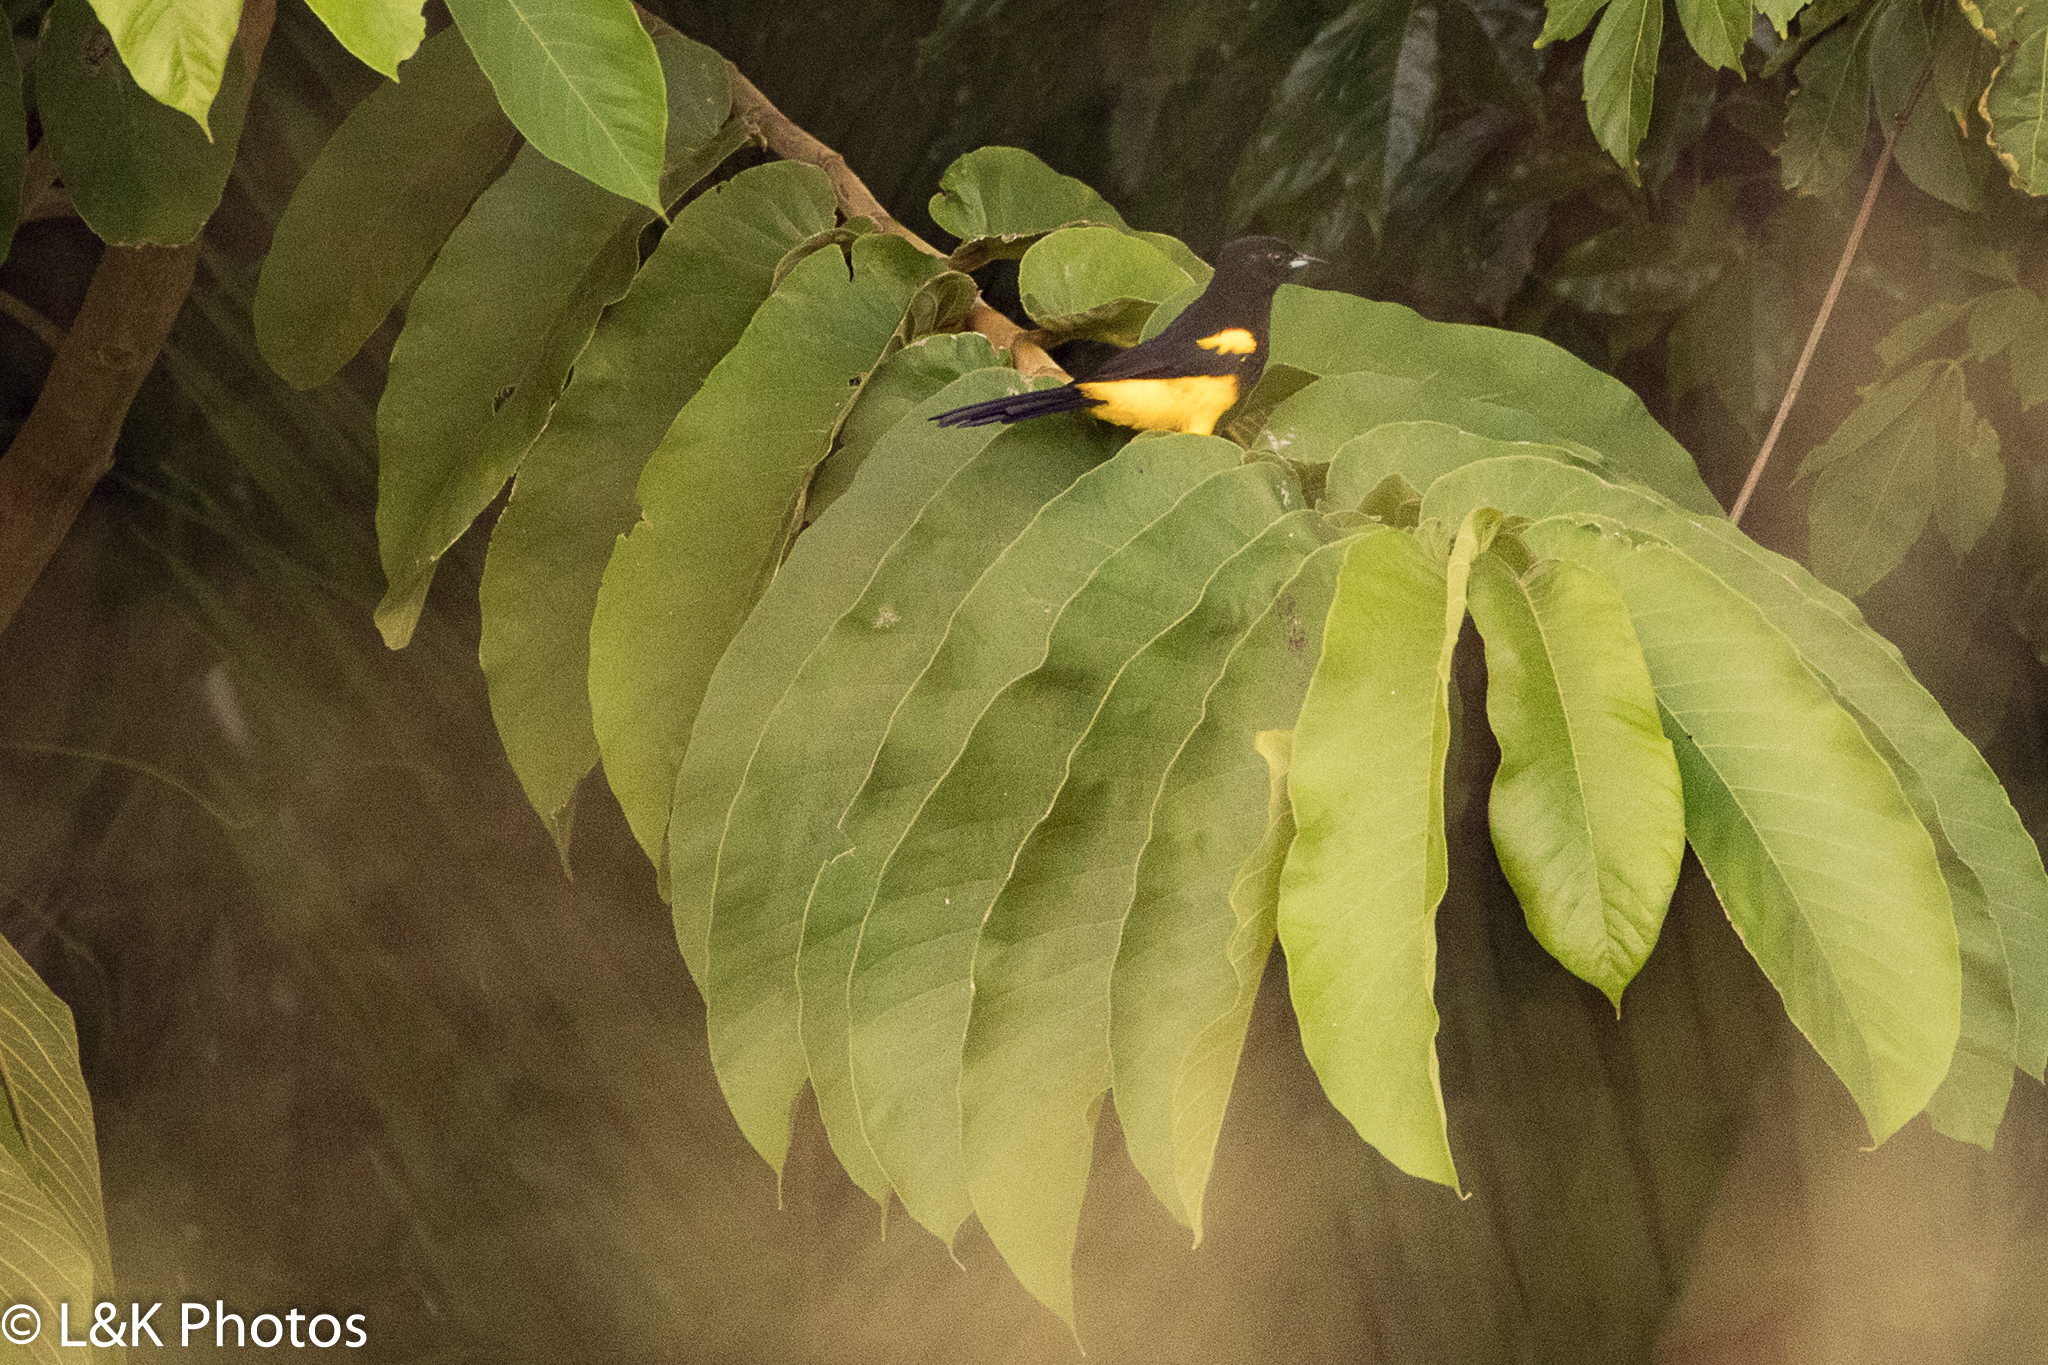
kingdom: Animalia
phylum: Chordata
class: Aves
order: Passeriformes
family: Icteridae
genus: Icterus
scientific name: Icterus prosthemelas
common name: Black-cowled oriole
